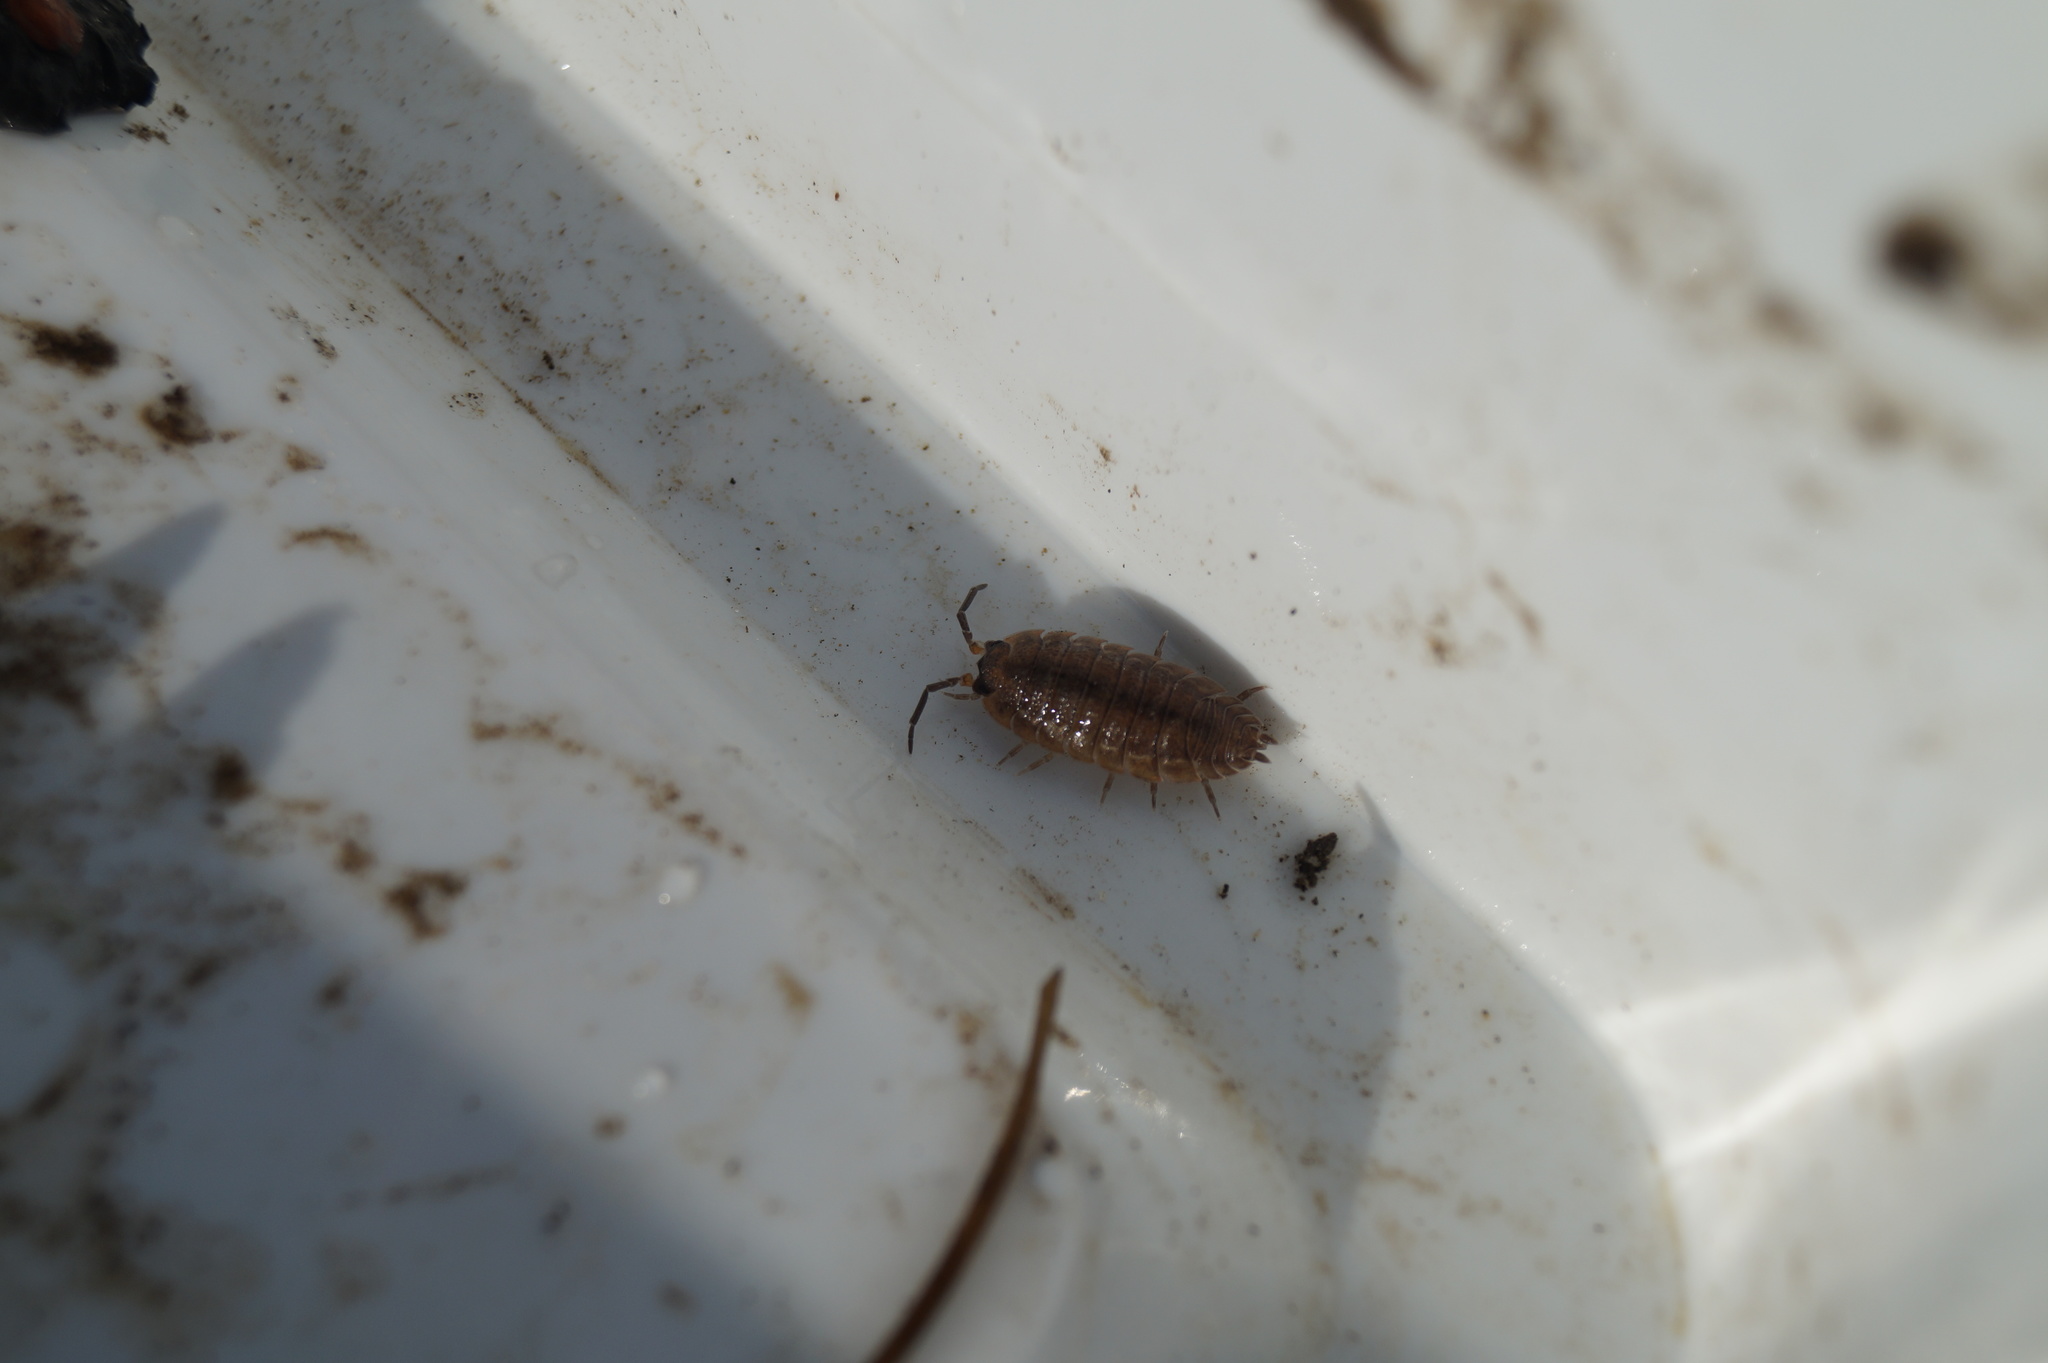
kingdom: Animalia
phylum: Arthropoda
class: Malacostraca
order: Isopoda
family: Porcellionidae
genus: Porcellio
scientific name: Porcellio scaber
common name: Common rough woodlouse
